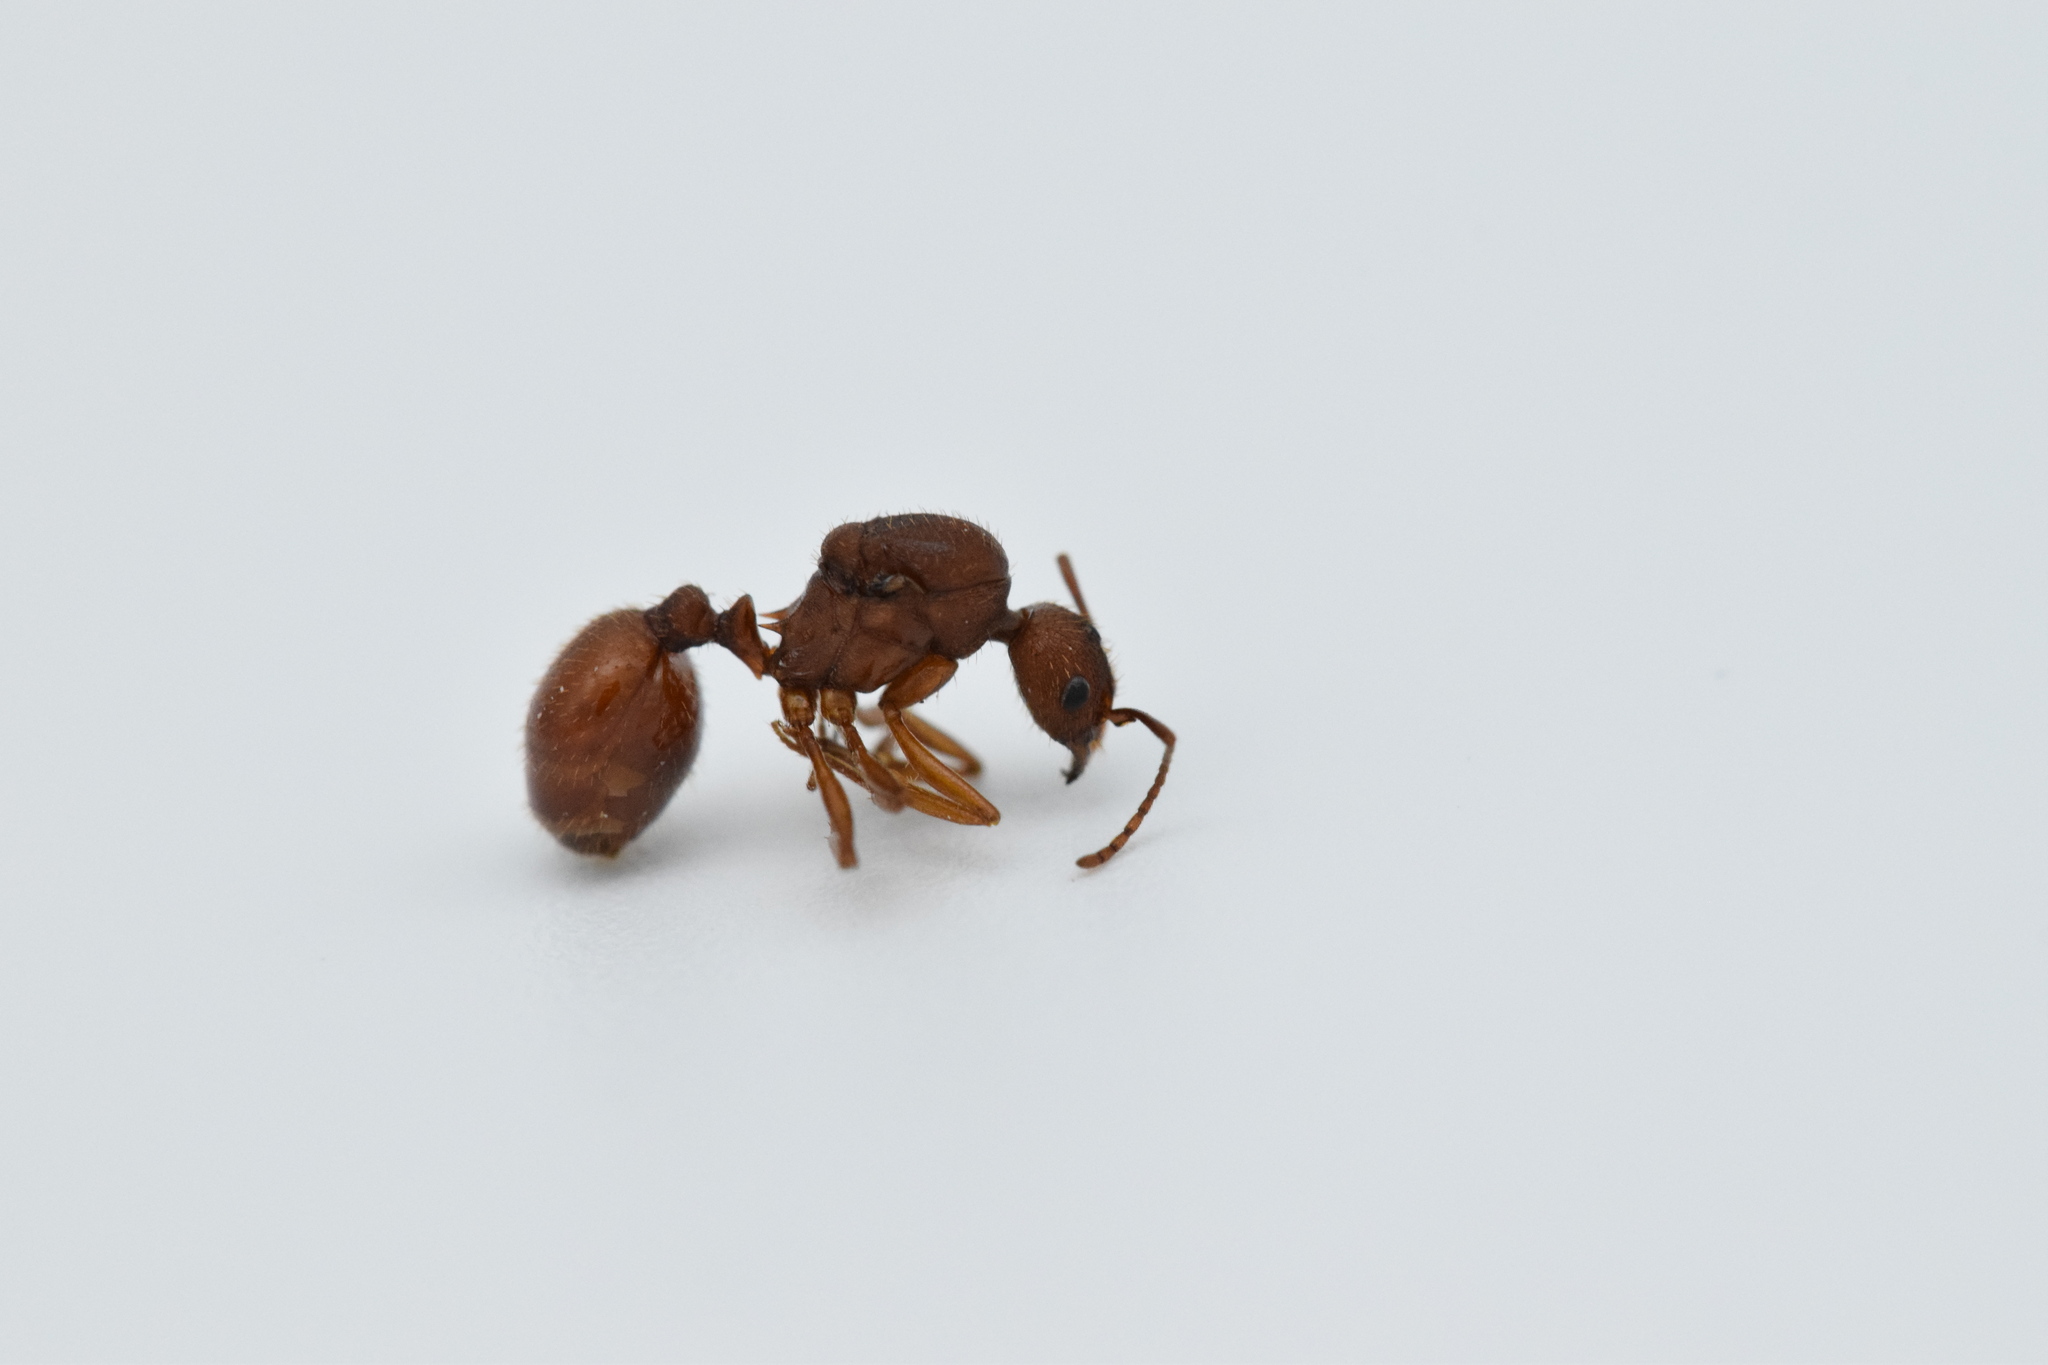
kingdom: Animalia
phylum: Arthropoda
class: Insecta
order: Hymenoptera
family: Formicidae
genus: Aphaenogaster
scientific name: Aphaenogaster texana
